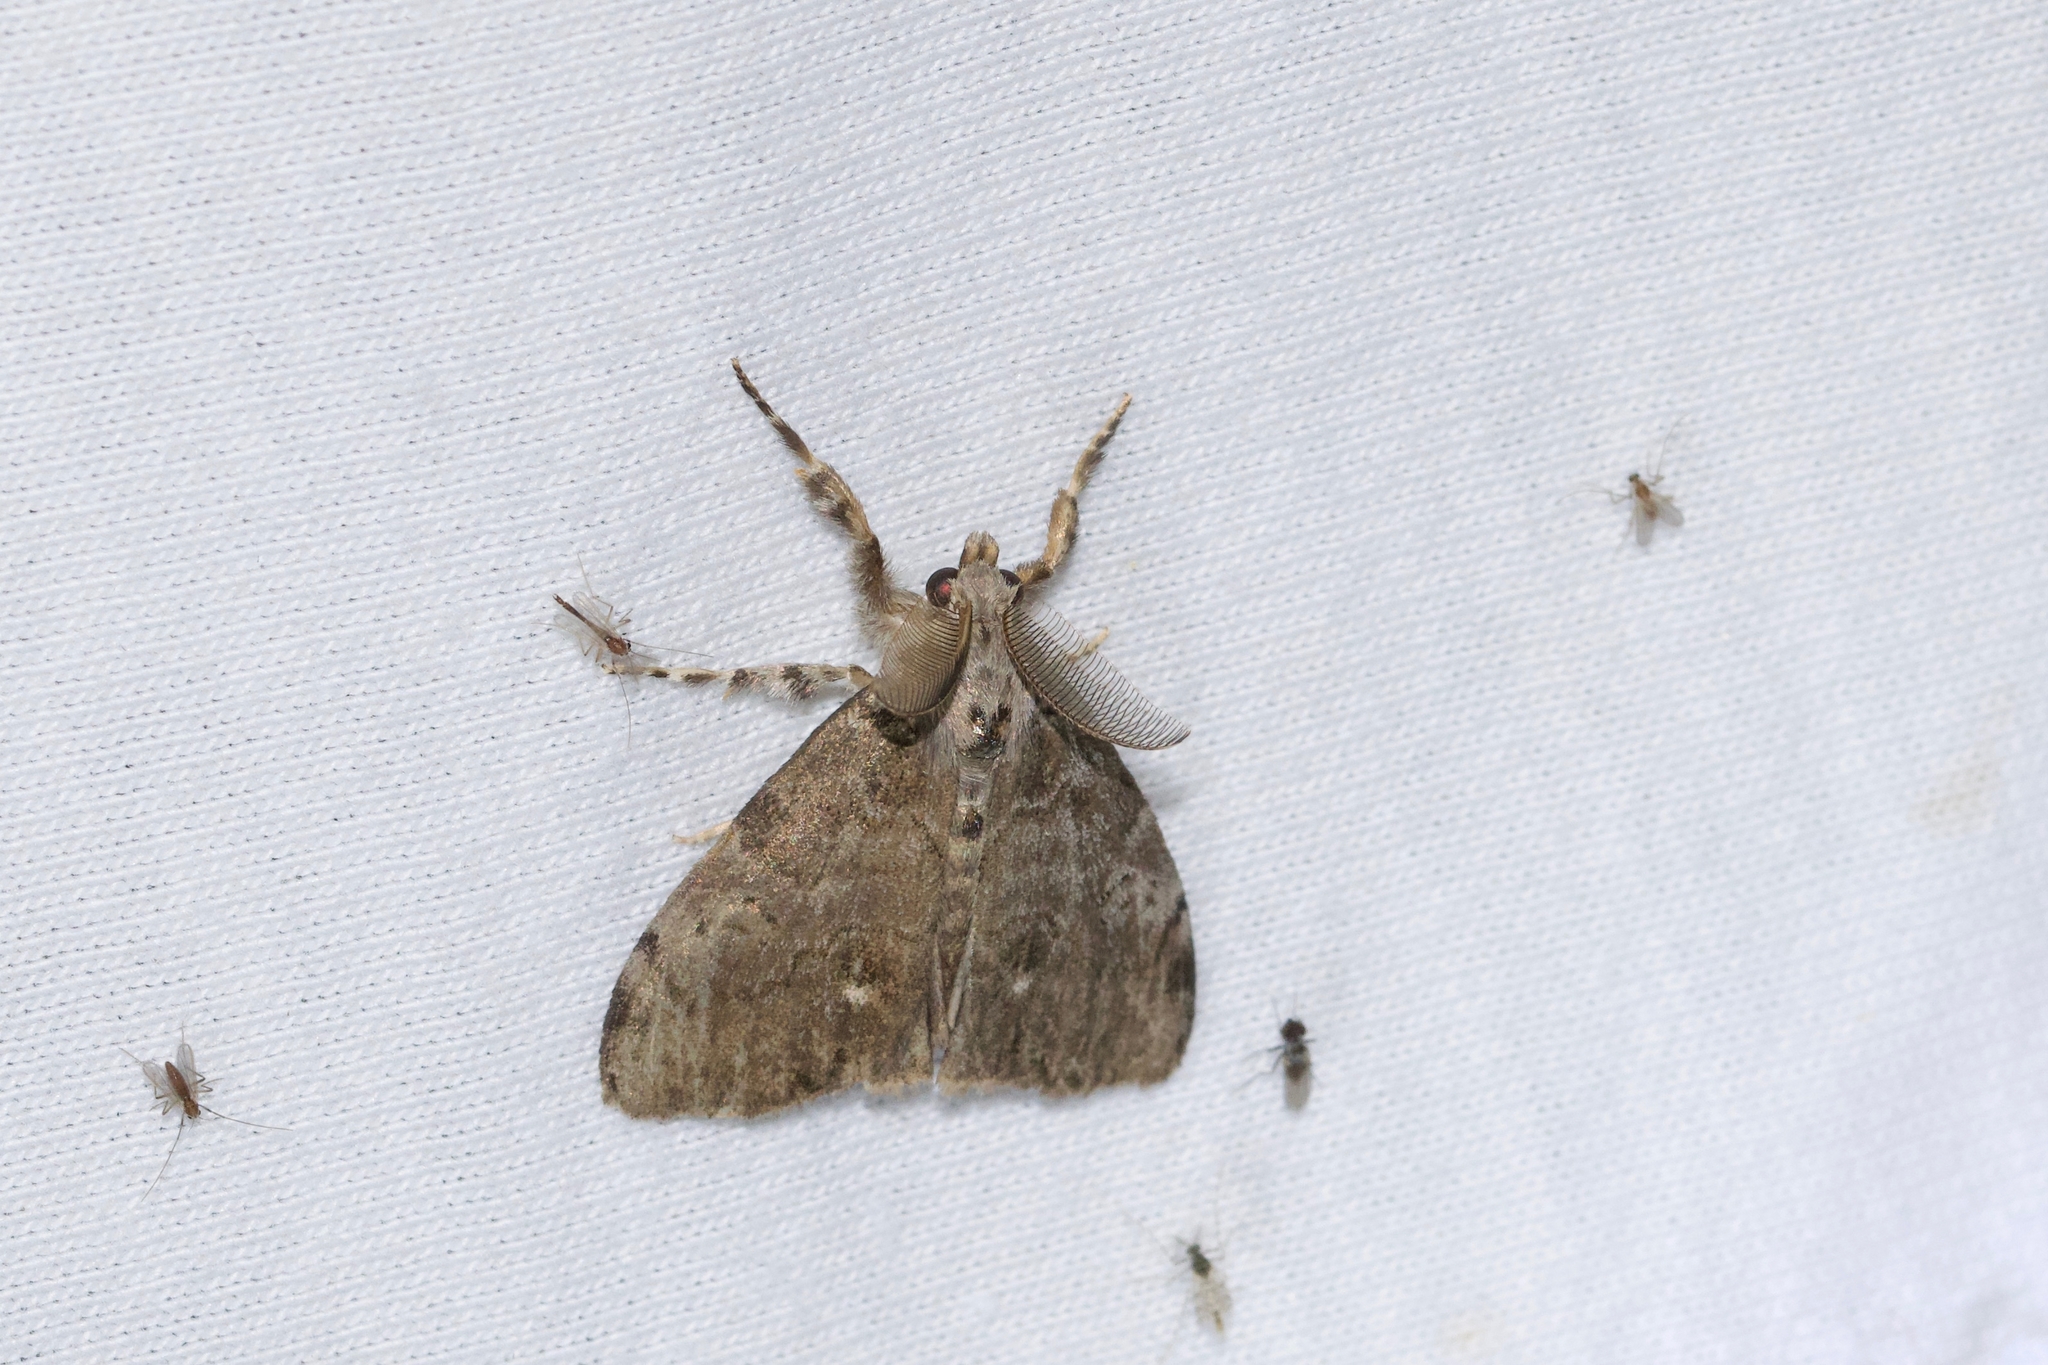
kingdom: Animalia
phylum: Arthropoda
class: Insecta
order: Lepidoptera
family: Erebidae
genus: Orgyia
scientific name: Orgyia leucostigma
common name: White-marked tussock moth
